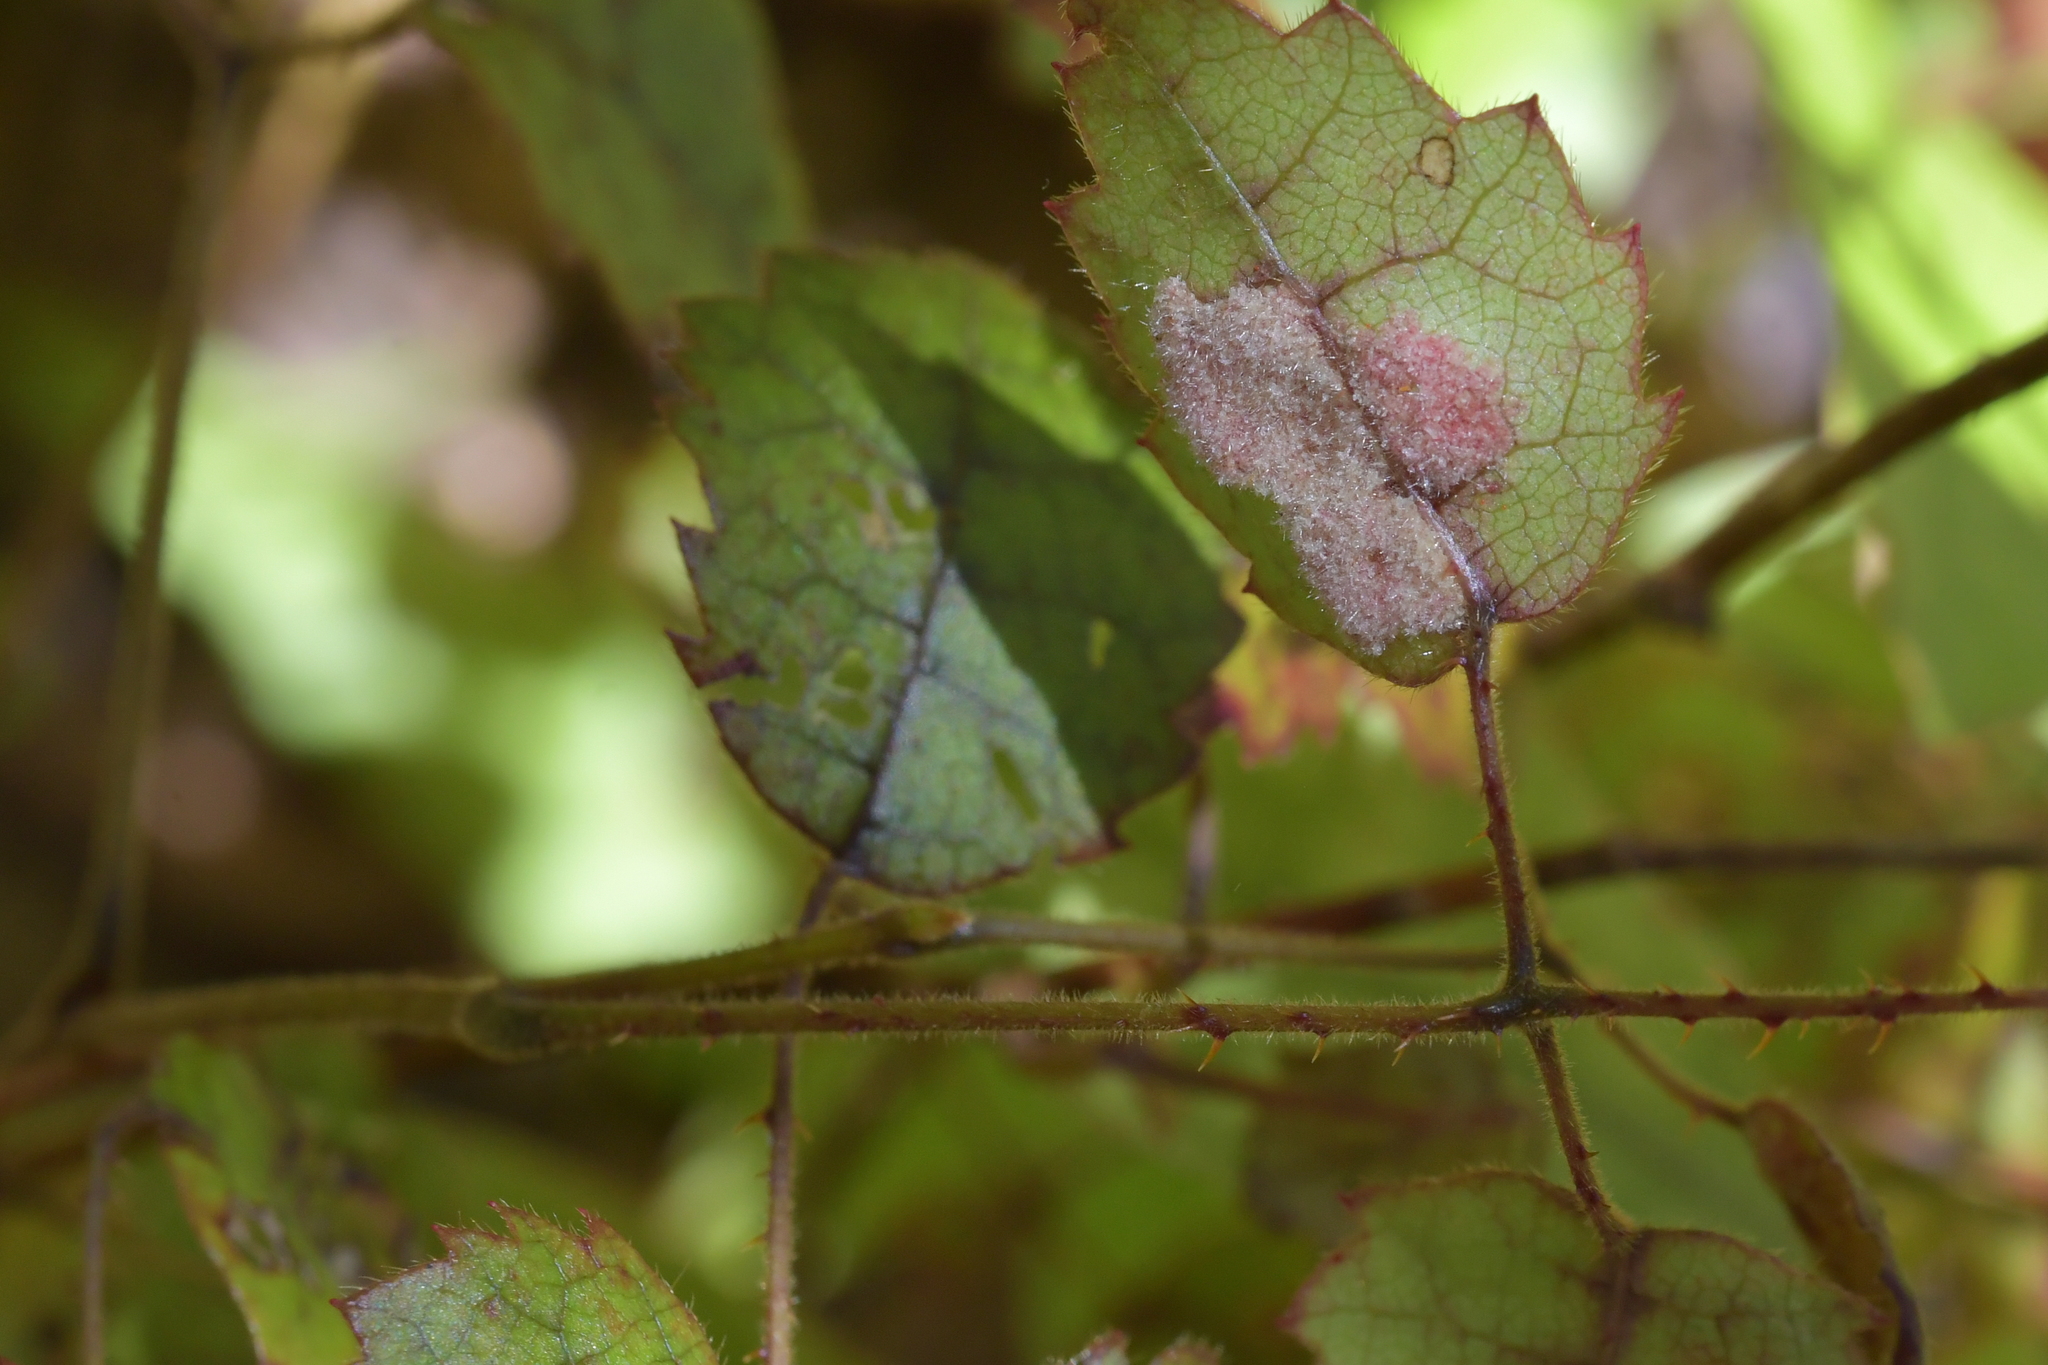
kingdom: Plantae
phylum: Tracheophyta
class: Magnoliopsida
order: Rosales
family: Rosaceae
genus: Rubus
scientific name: Rubus australis
